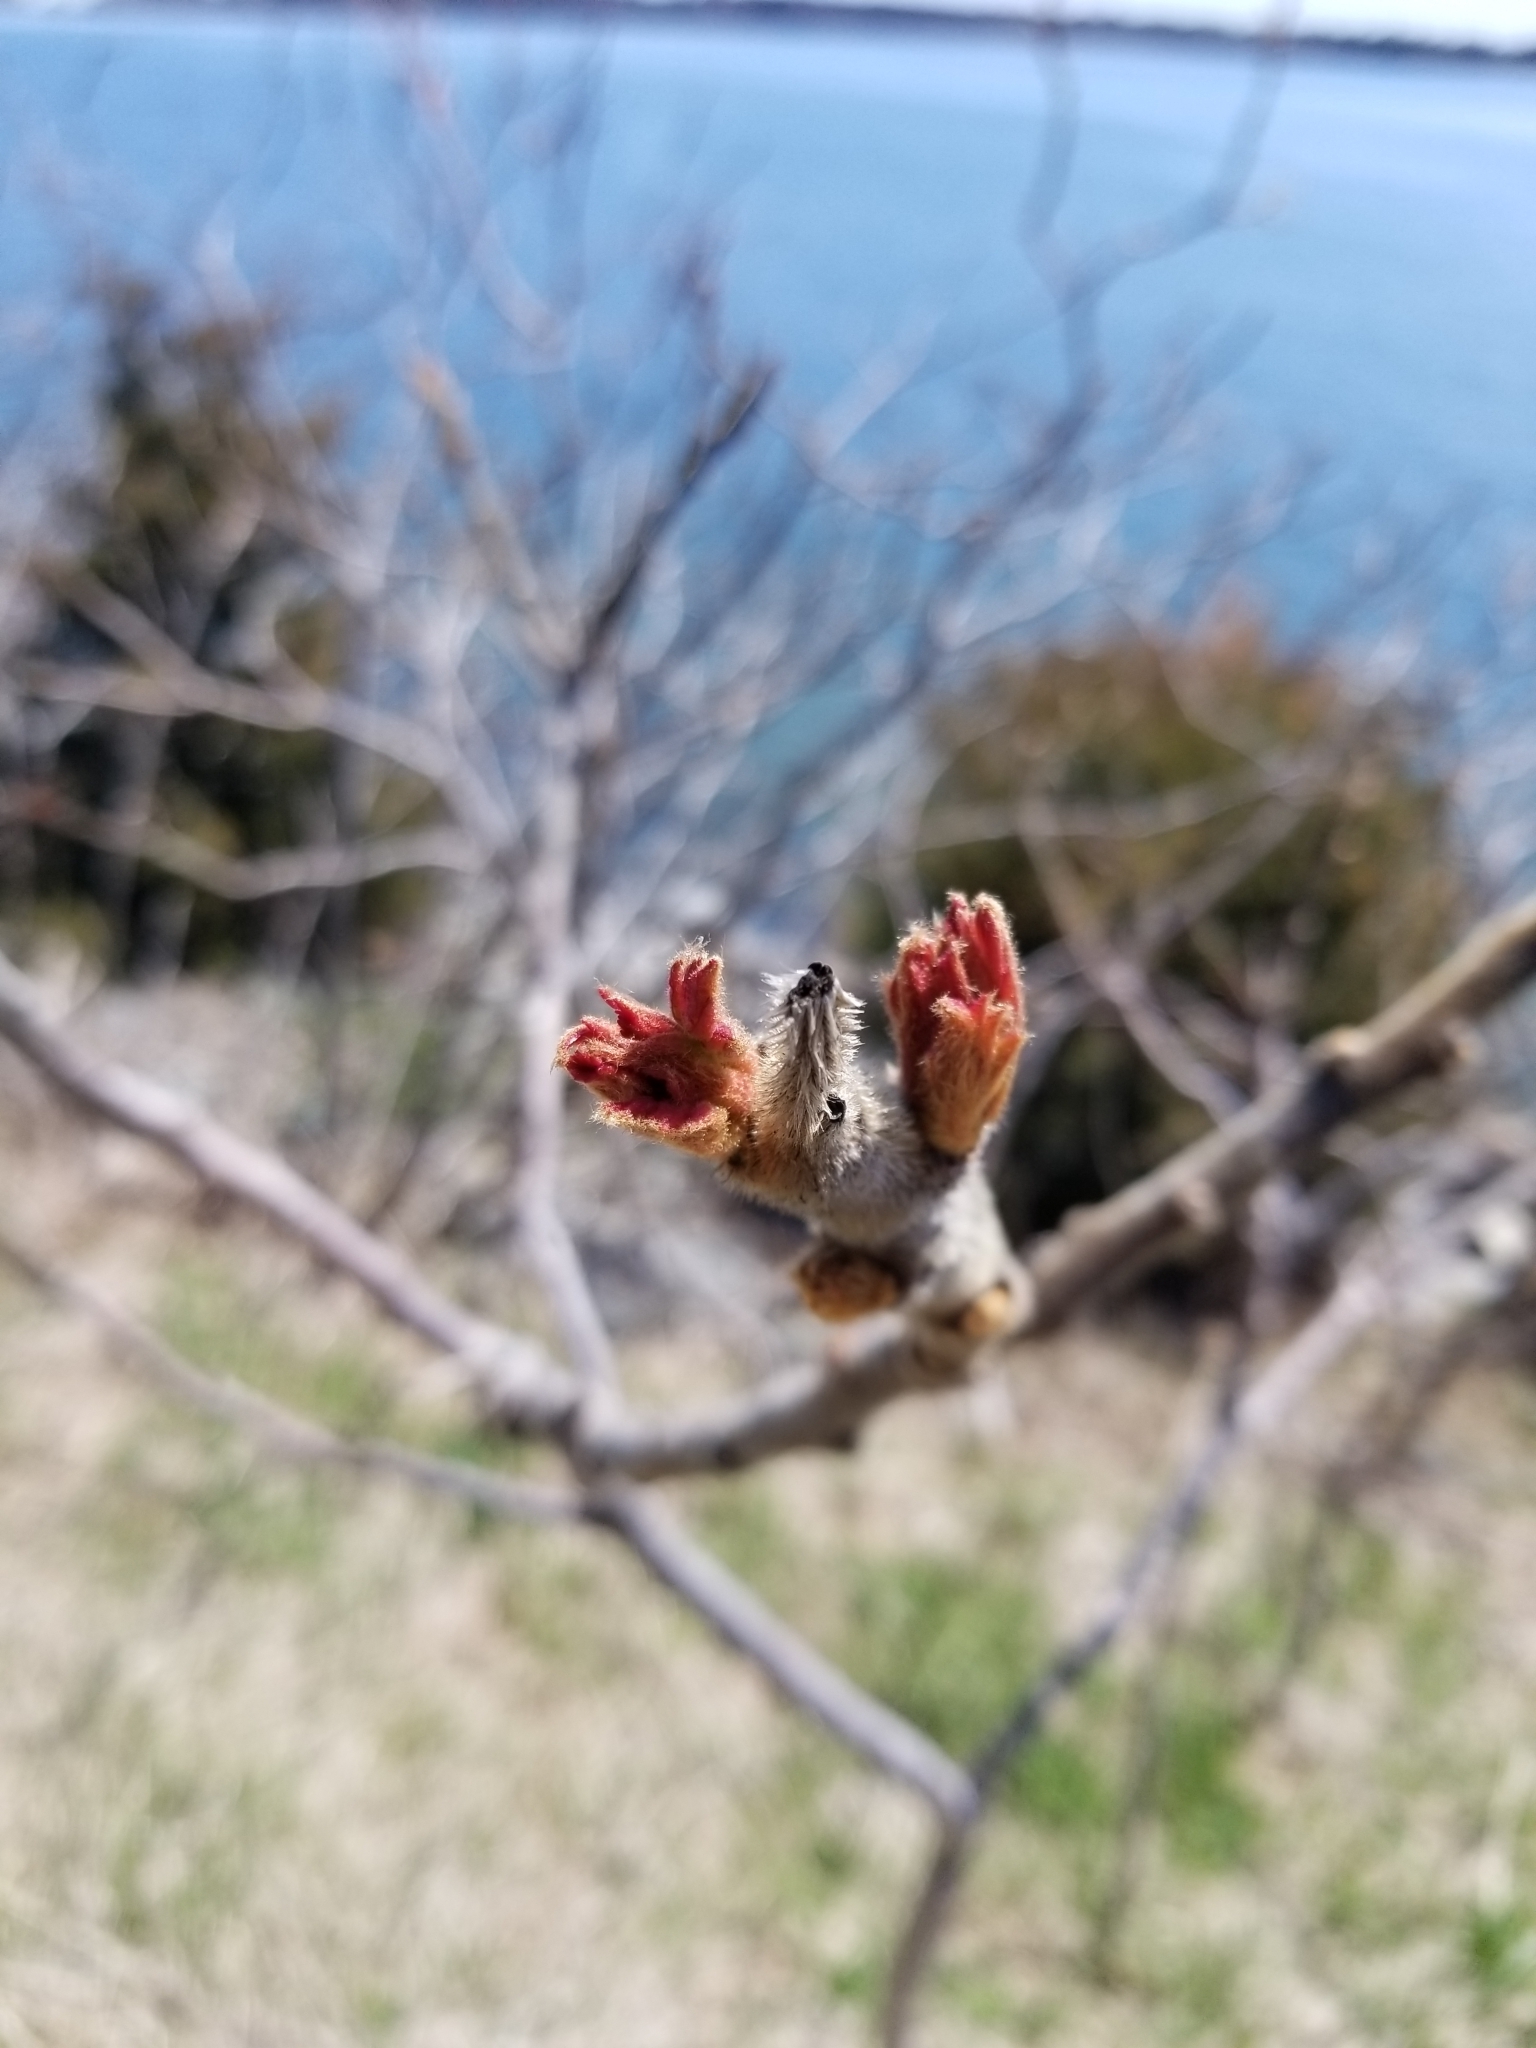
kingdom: Plantae
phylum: Tracheophyta
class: Magnoliopsida
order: Sapindales
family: Anacardiaceae
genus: Rhus
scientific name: Rhus typhina
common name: Staghorn sumac
